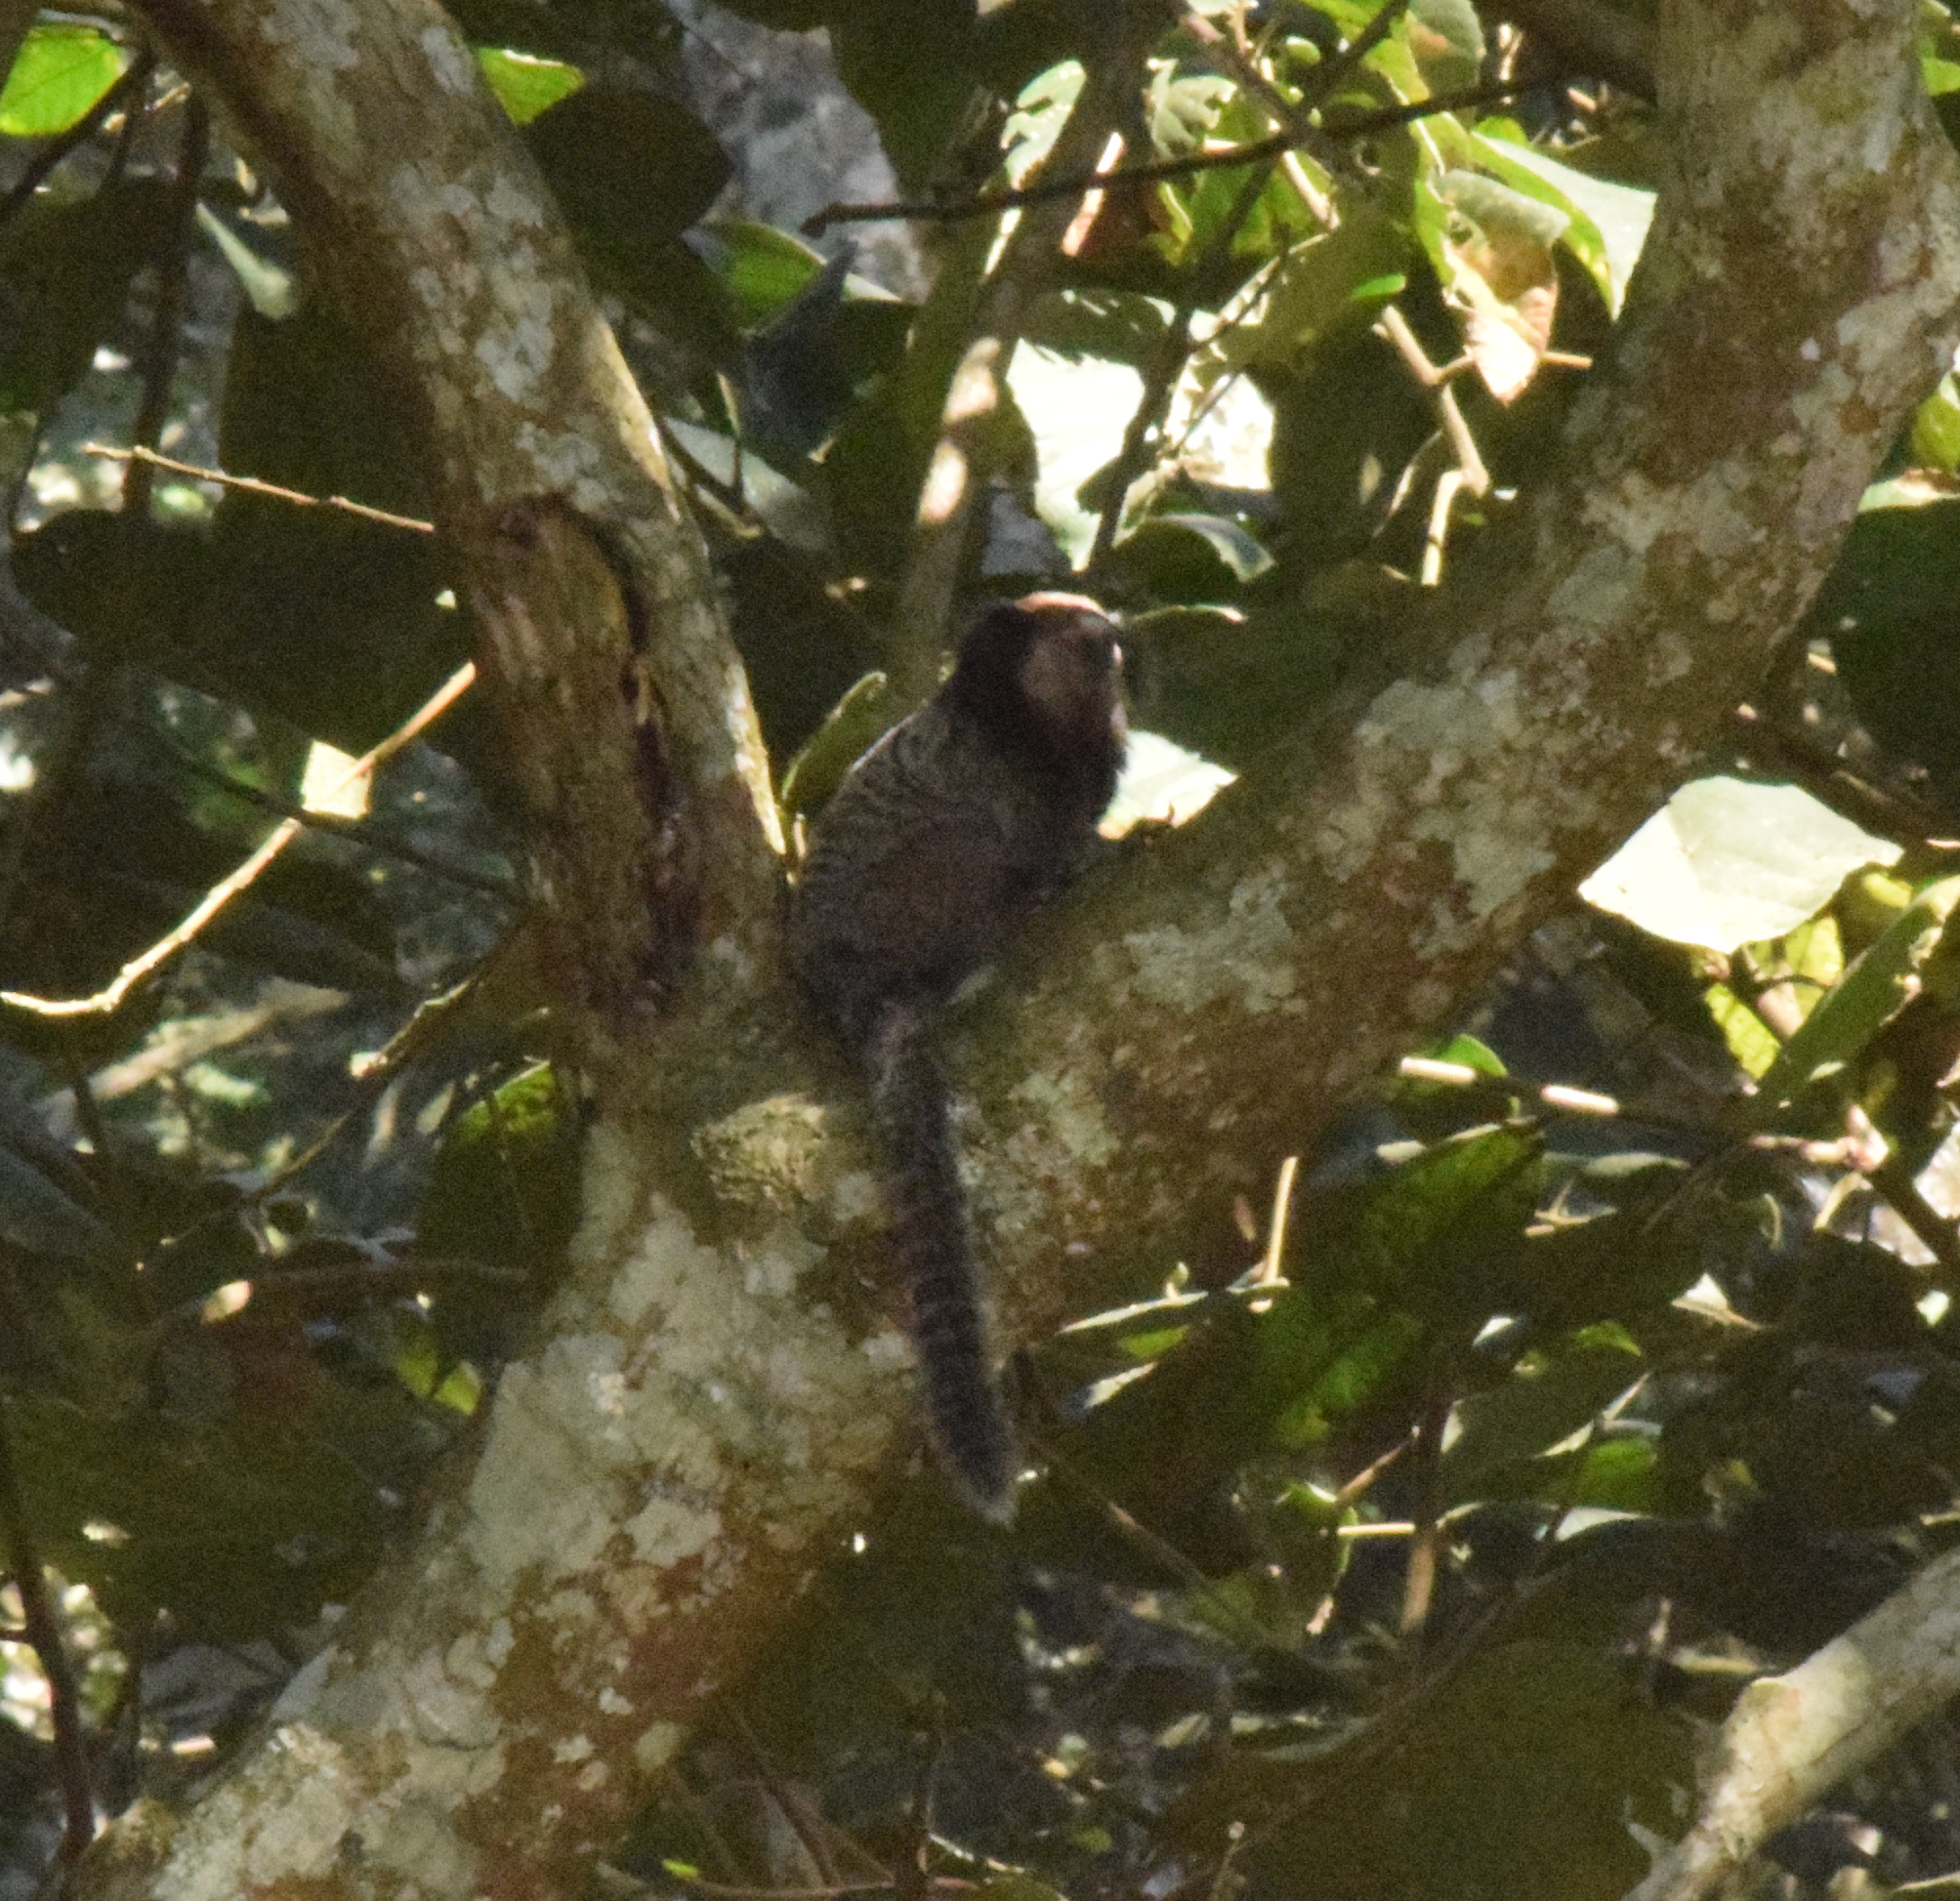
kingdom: Animalia
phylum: Chordata
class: Mammalia
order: Primates
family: Callitrichidae
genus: Callithrix
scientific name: Callithrix penicillata
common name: Black-tufted marmoset
